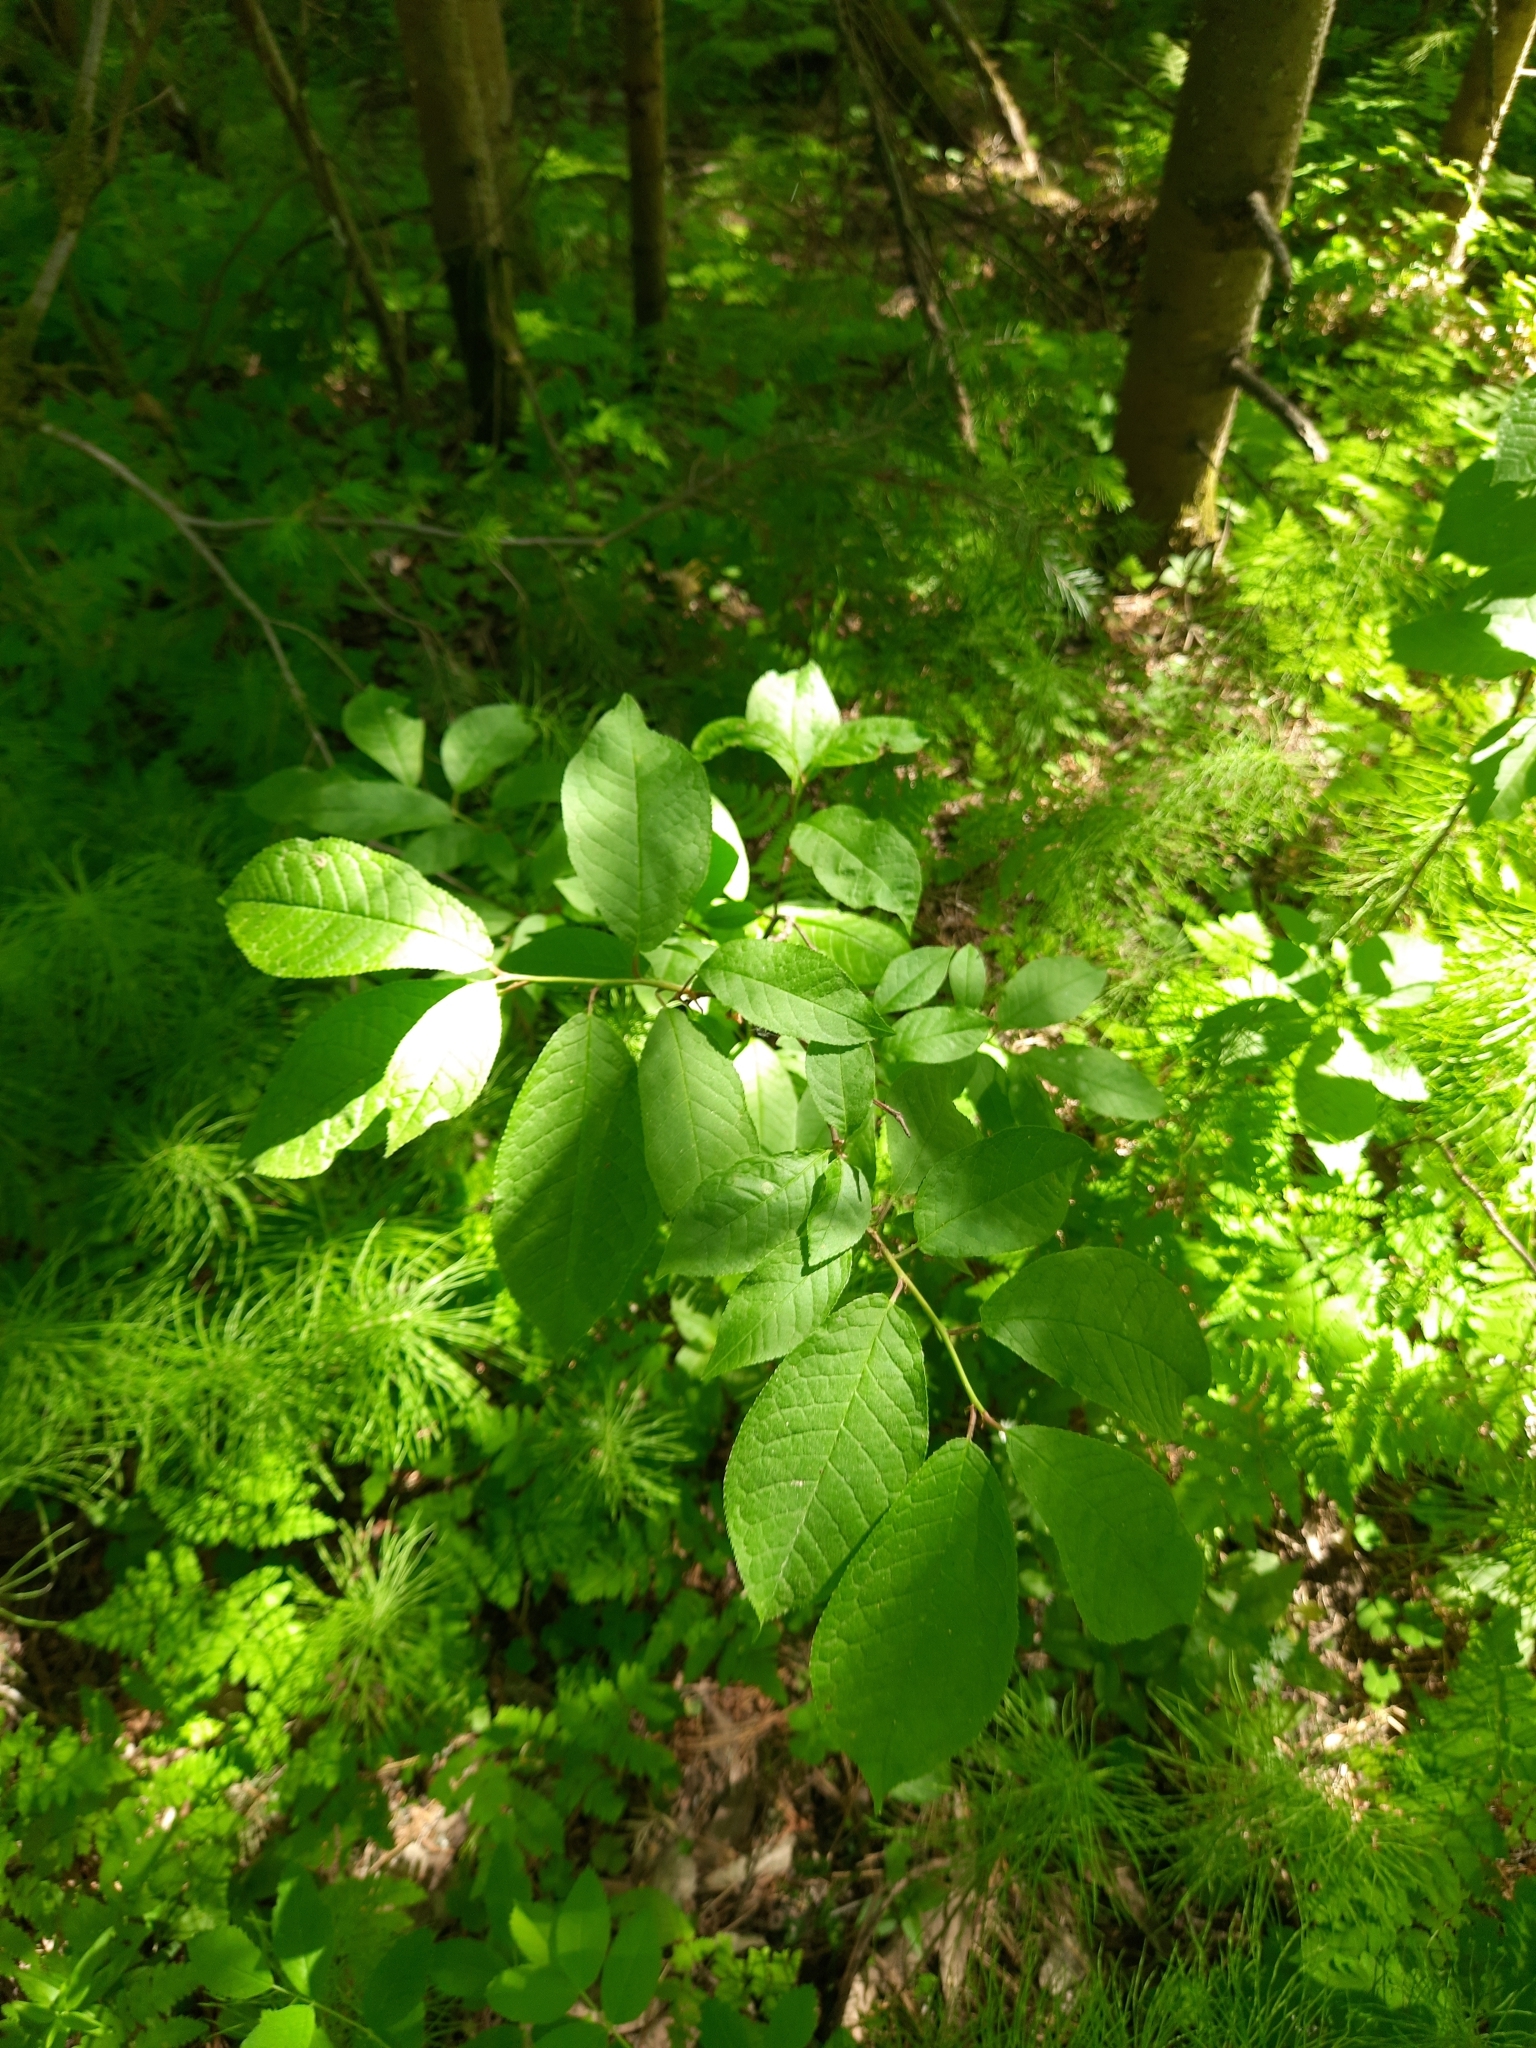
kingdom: Plantae
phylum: Tracheophyta
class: Magnoliopsida
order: Rosales
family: Rosaceae
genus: Prunus
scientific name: Prunus padus
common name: Bird cherry
